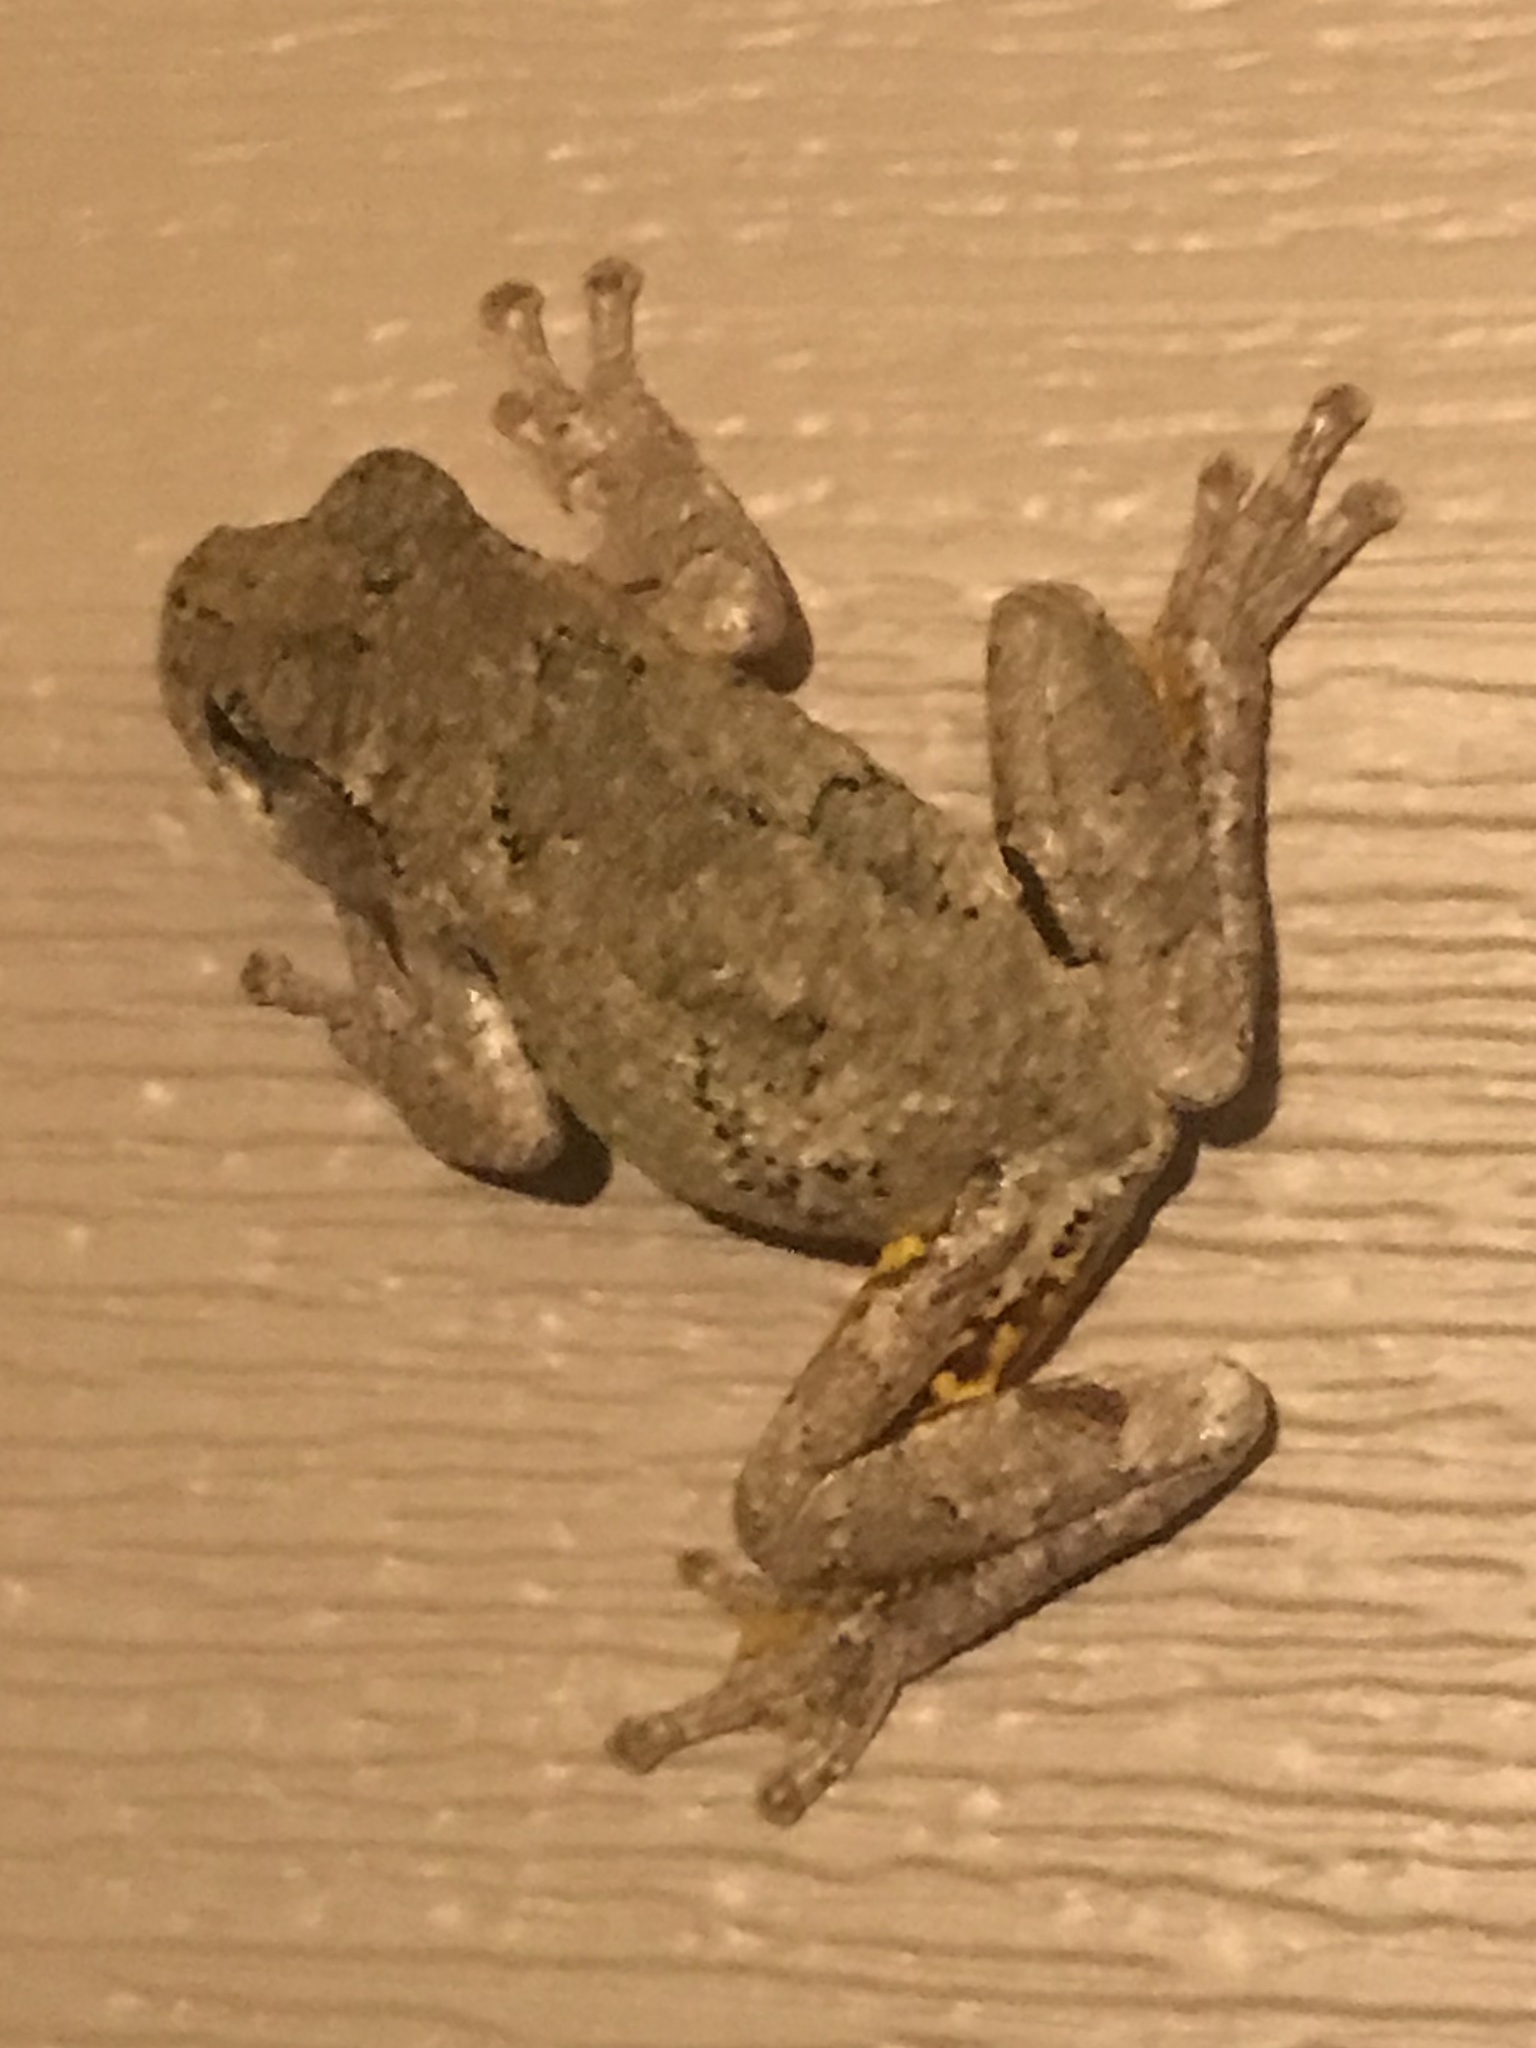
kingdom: Animalia
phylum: Chordata
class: Amphibia
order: Anura
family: Hylidae
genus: Dryophytes
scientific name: Dryophytes chrysoscelis
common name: Cope's gray treefrog
